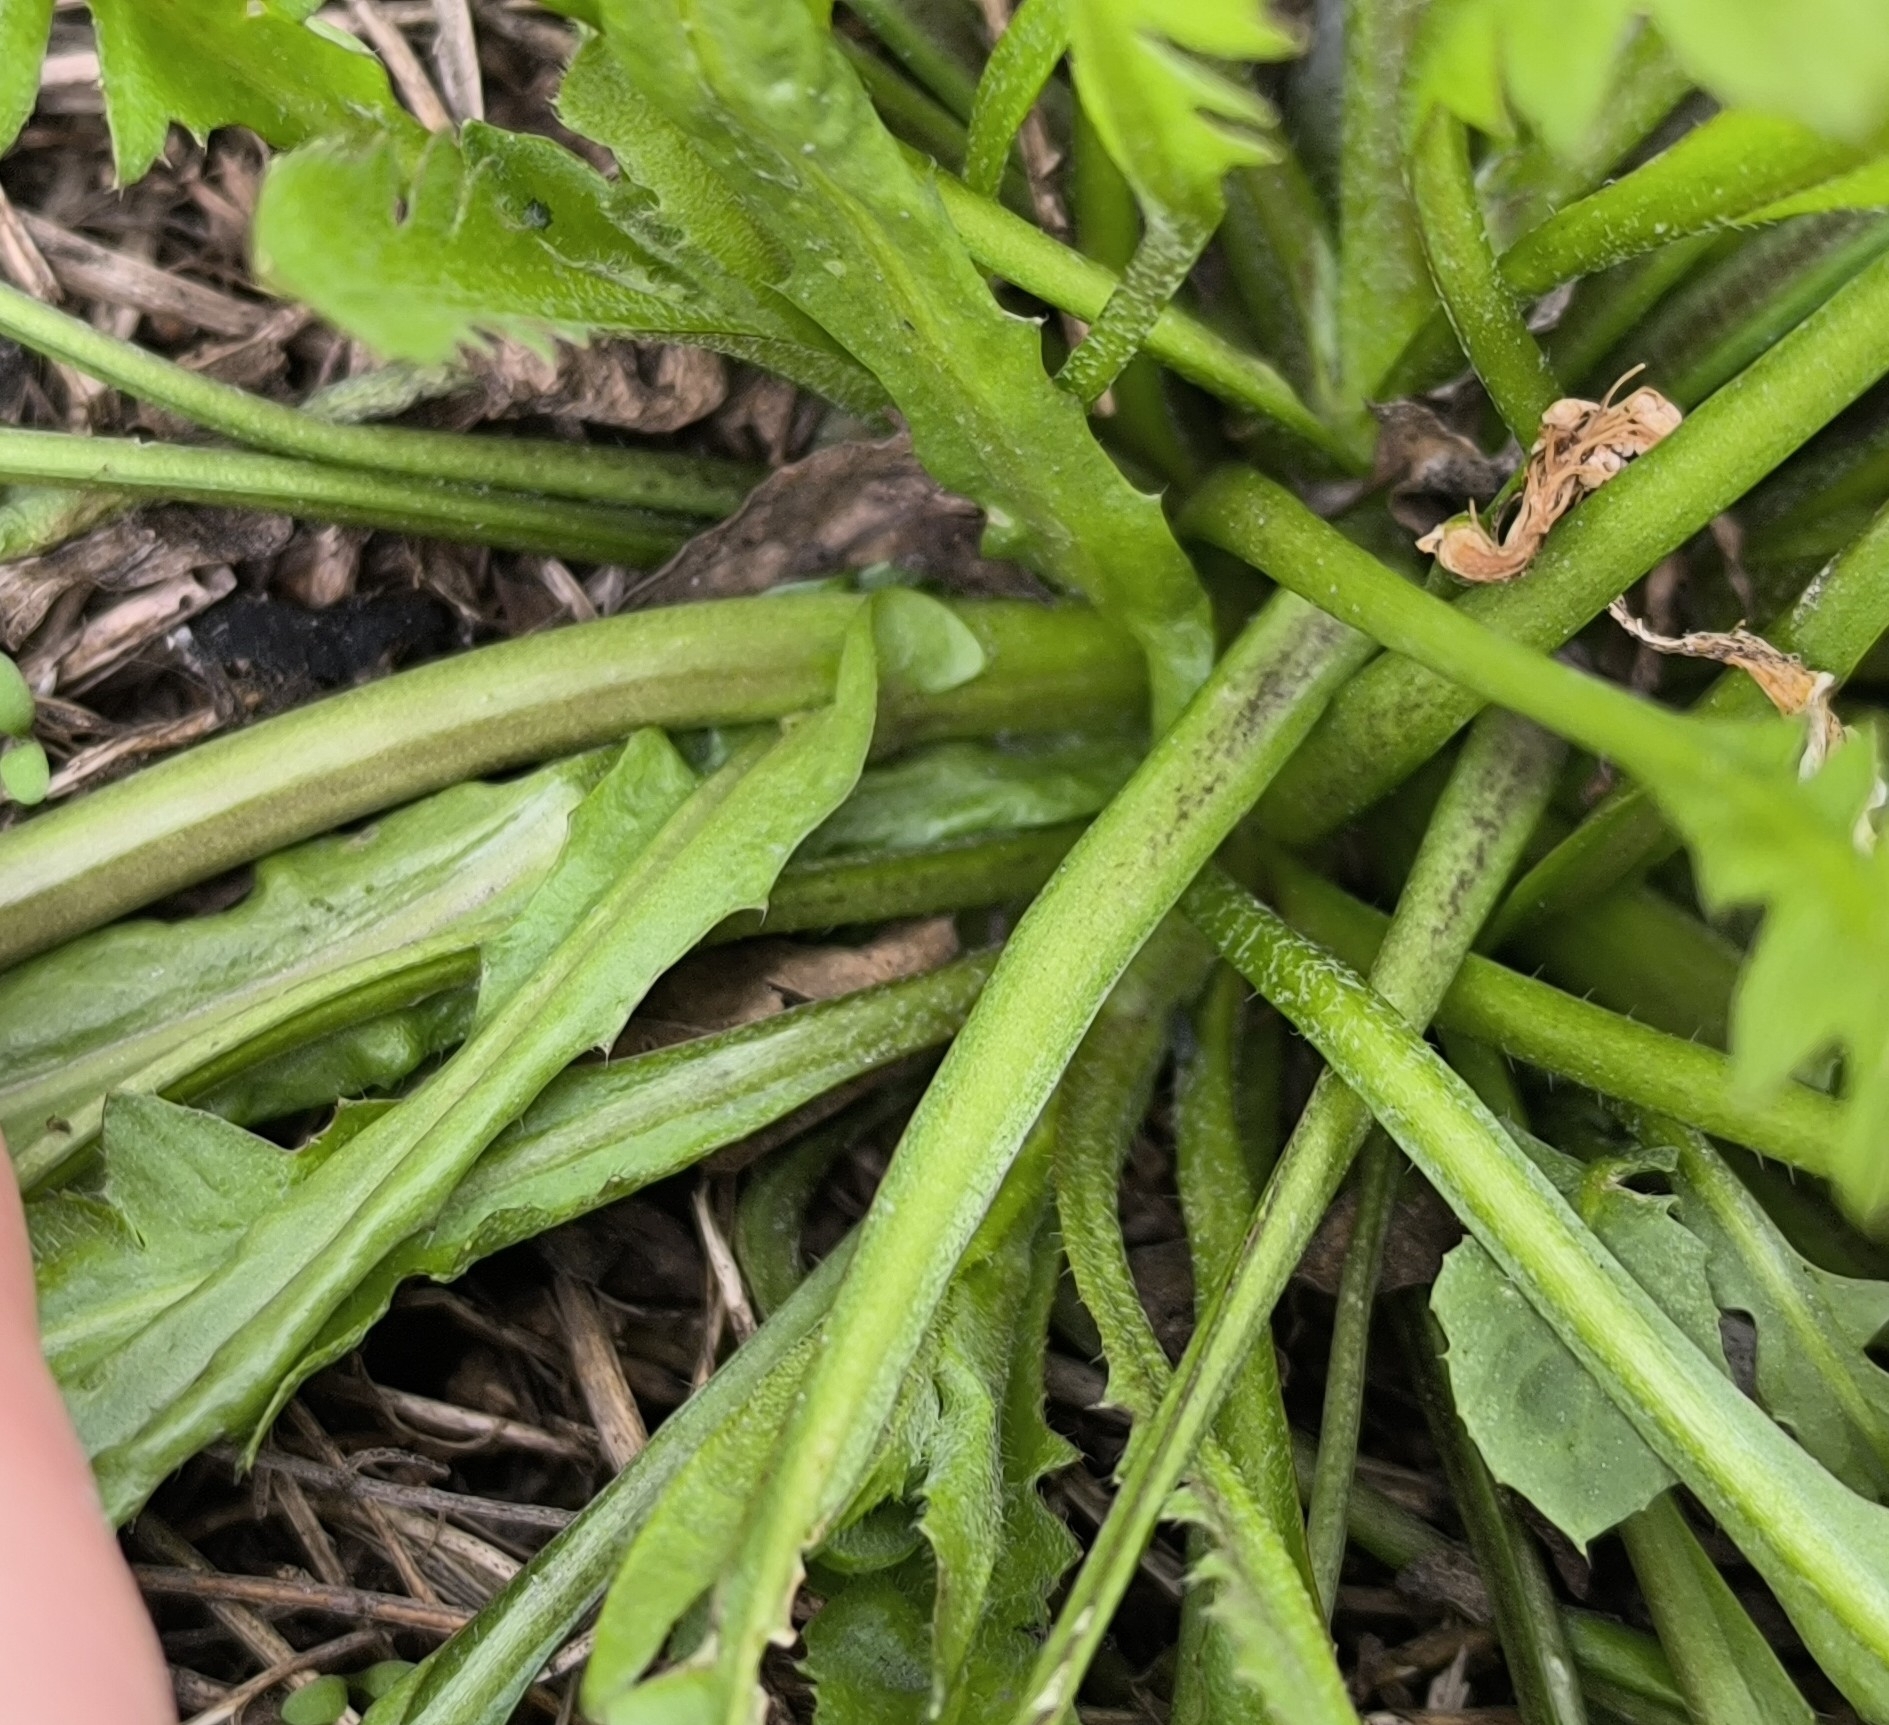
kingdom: Plantae
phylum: Tracheophyta
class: Magnoliopsida
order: Brassicales
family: Brassicaceae
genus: Capsella
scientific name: Capsella bursa-pastoris
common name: Shepherd's purse
